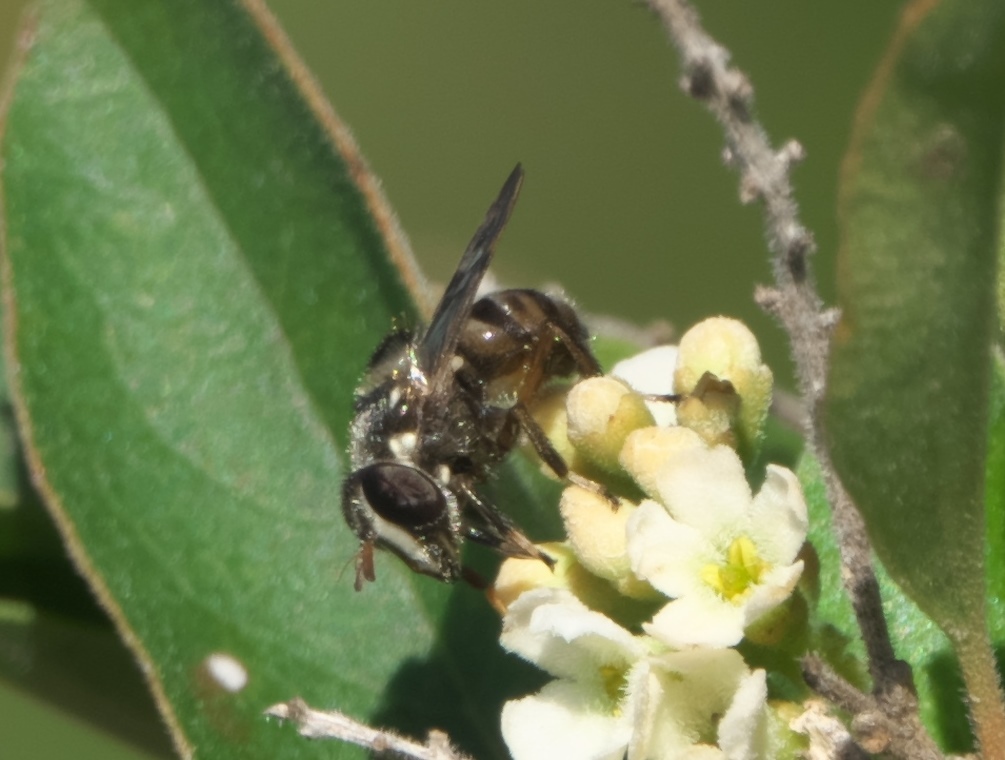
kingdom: Animalia
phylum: Arthropoda
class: Insecta
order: Diptera
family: Syrphidae
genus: Copestylum
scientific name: Copestylum tamaulipanum
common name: Syrphid fly
